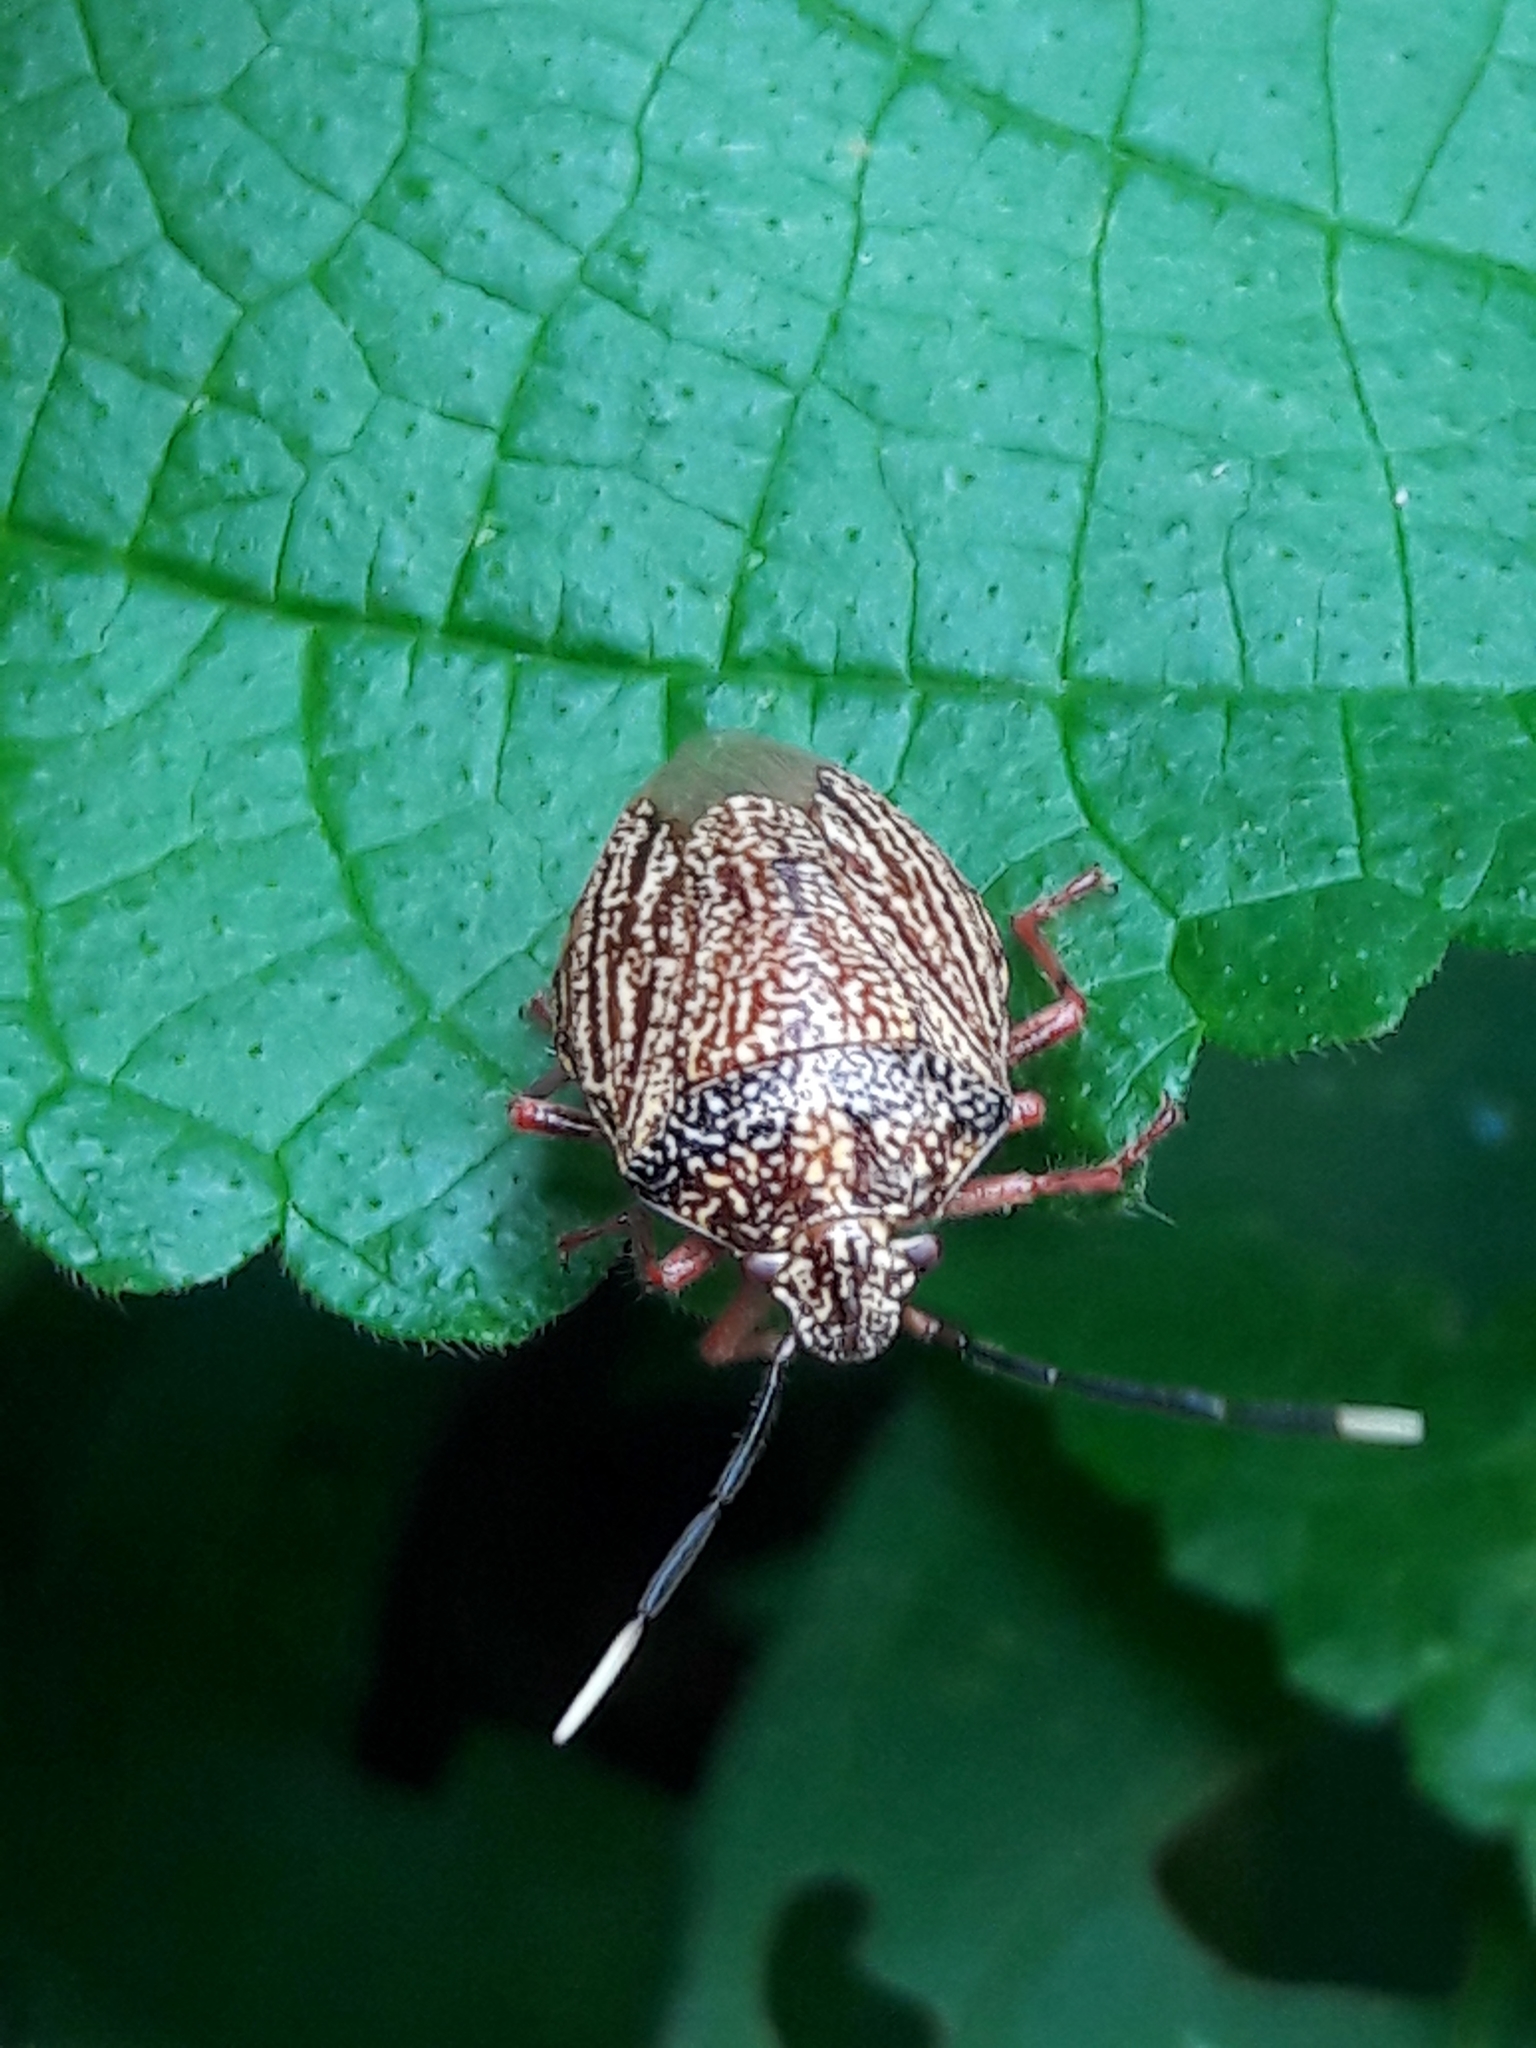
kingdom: Animalia
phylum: Arthropoda
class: Insecta
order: Hemiptera
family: Pentatomidae
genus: Antiteuchus
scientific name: Antiteuchus sepulcralis
